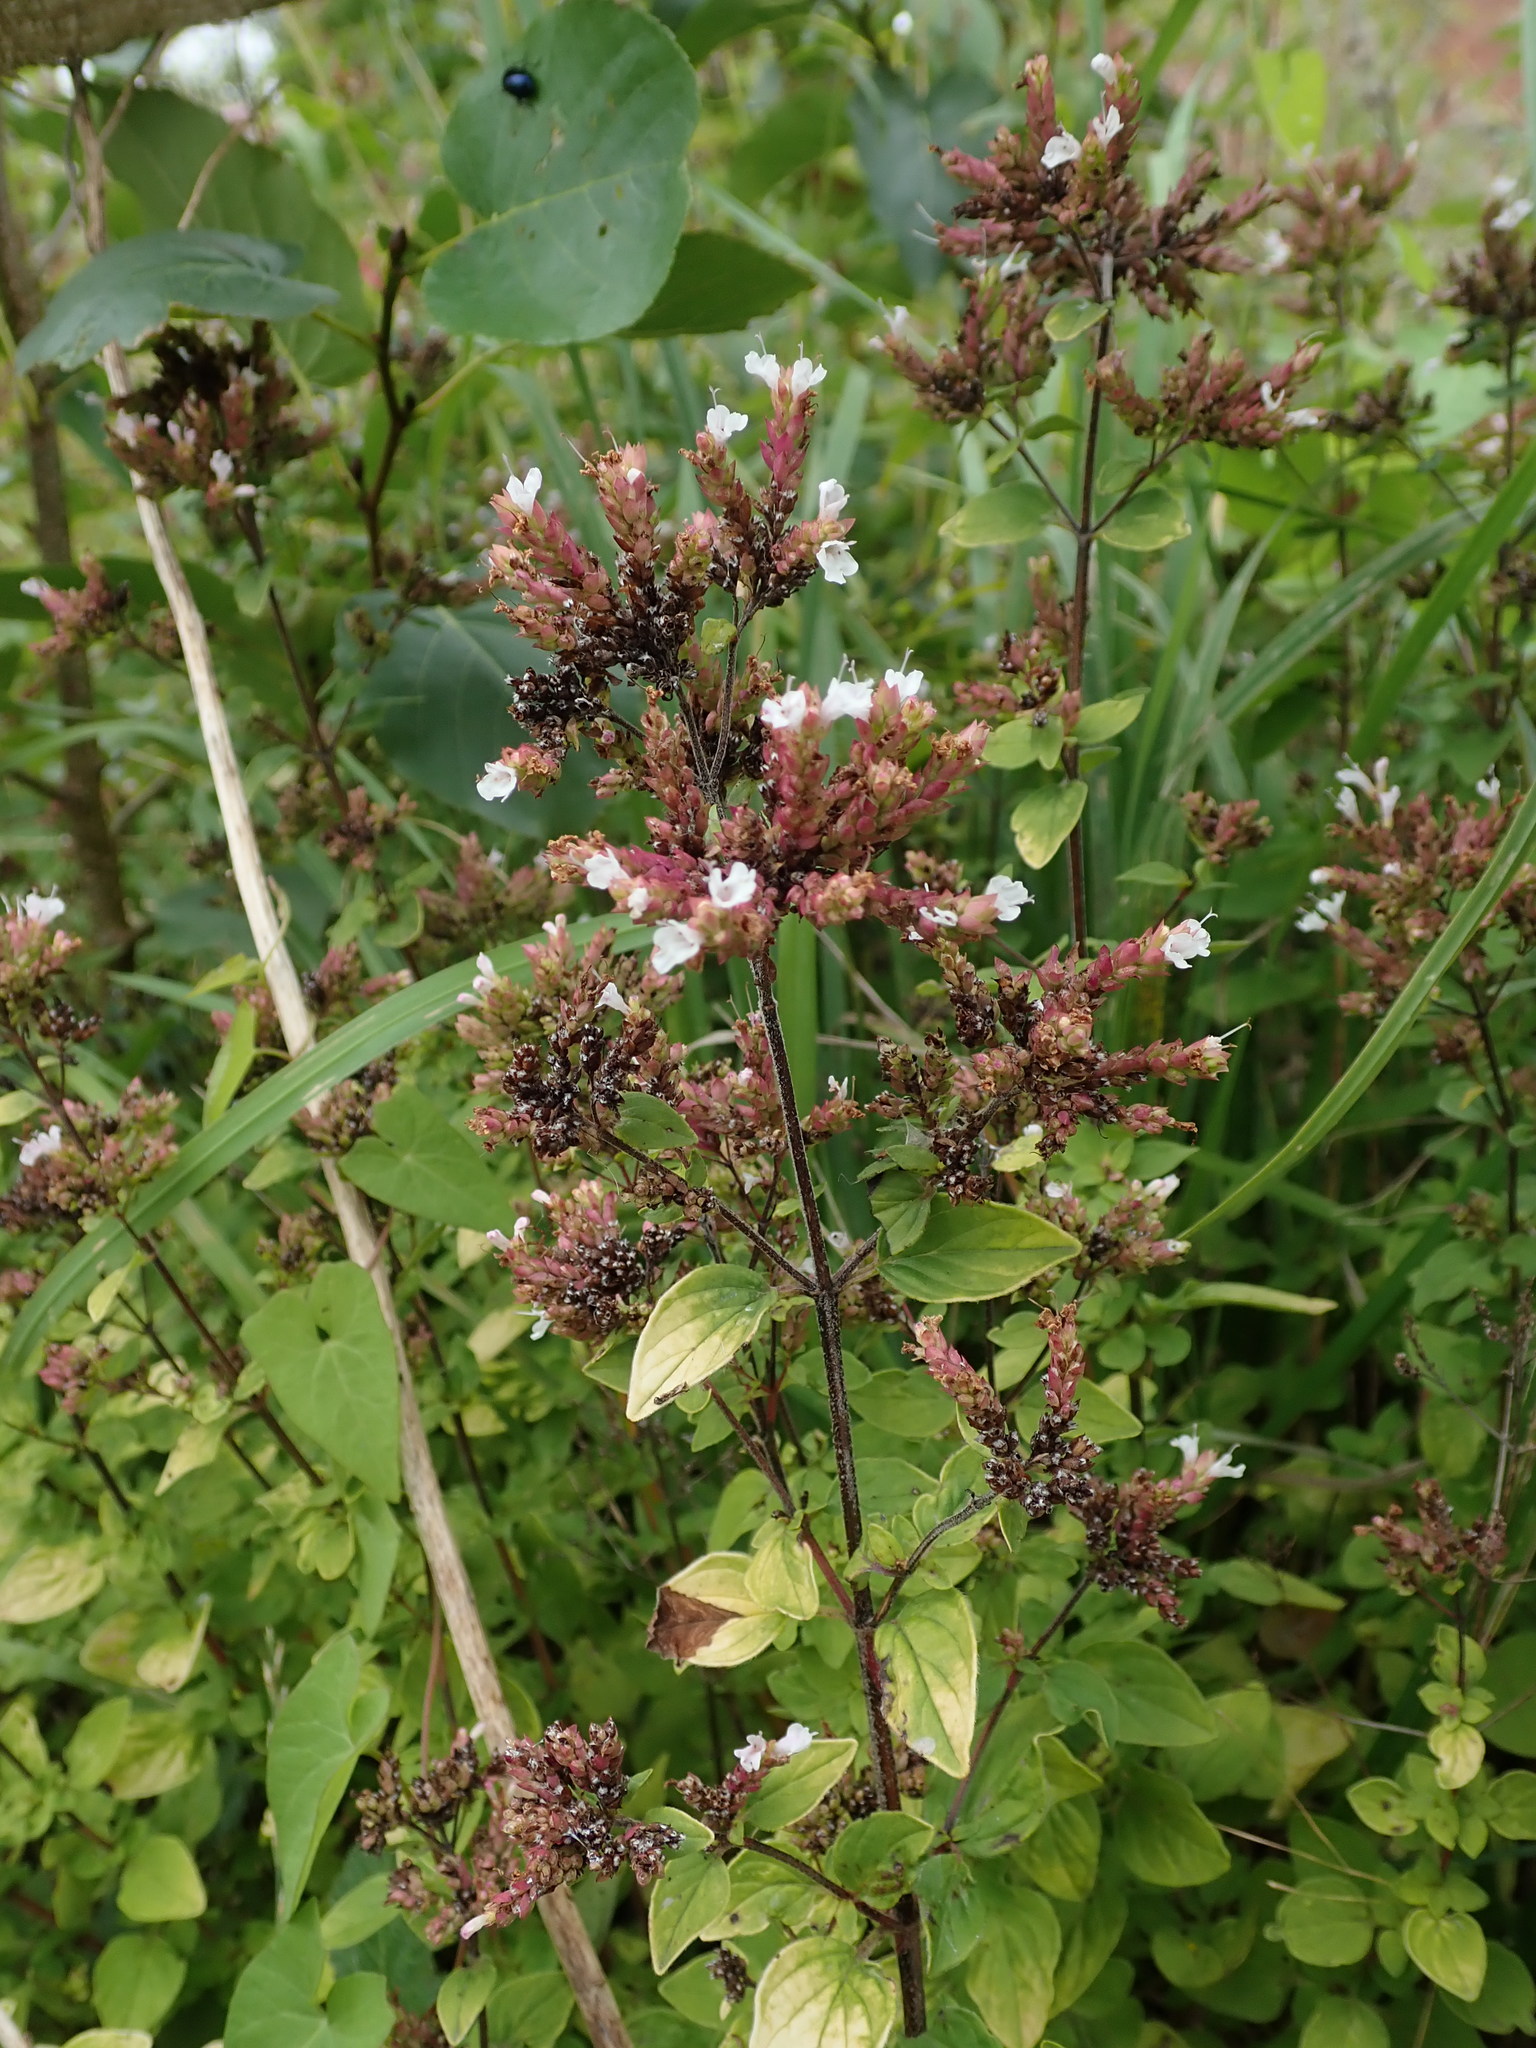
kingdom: Plantae
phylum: Tracheophyta
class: Magnoliopsida
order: Lamiales
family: Lamiaceae
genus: Origanum
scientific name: Origanum vulgare
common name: Wild marjoram
